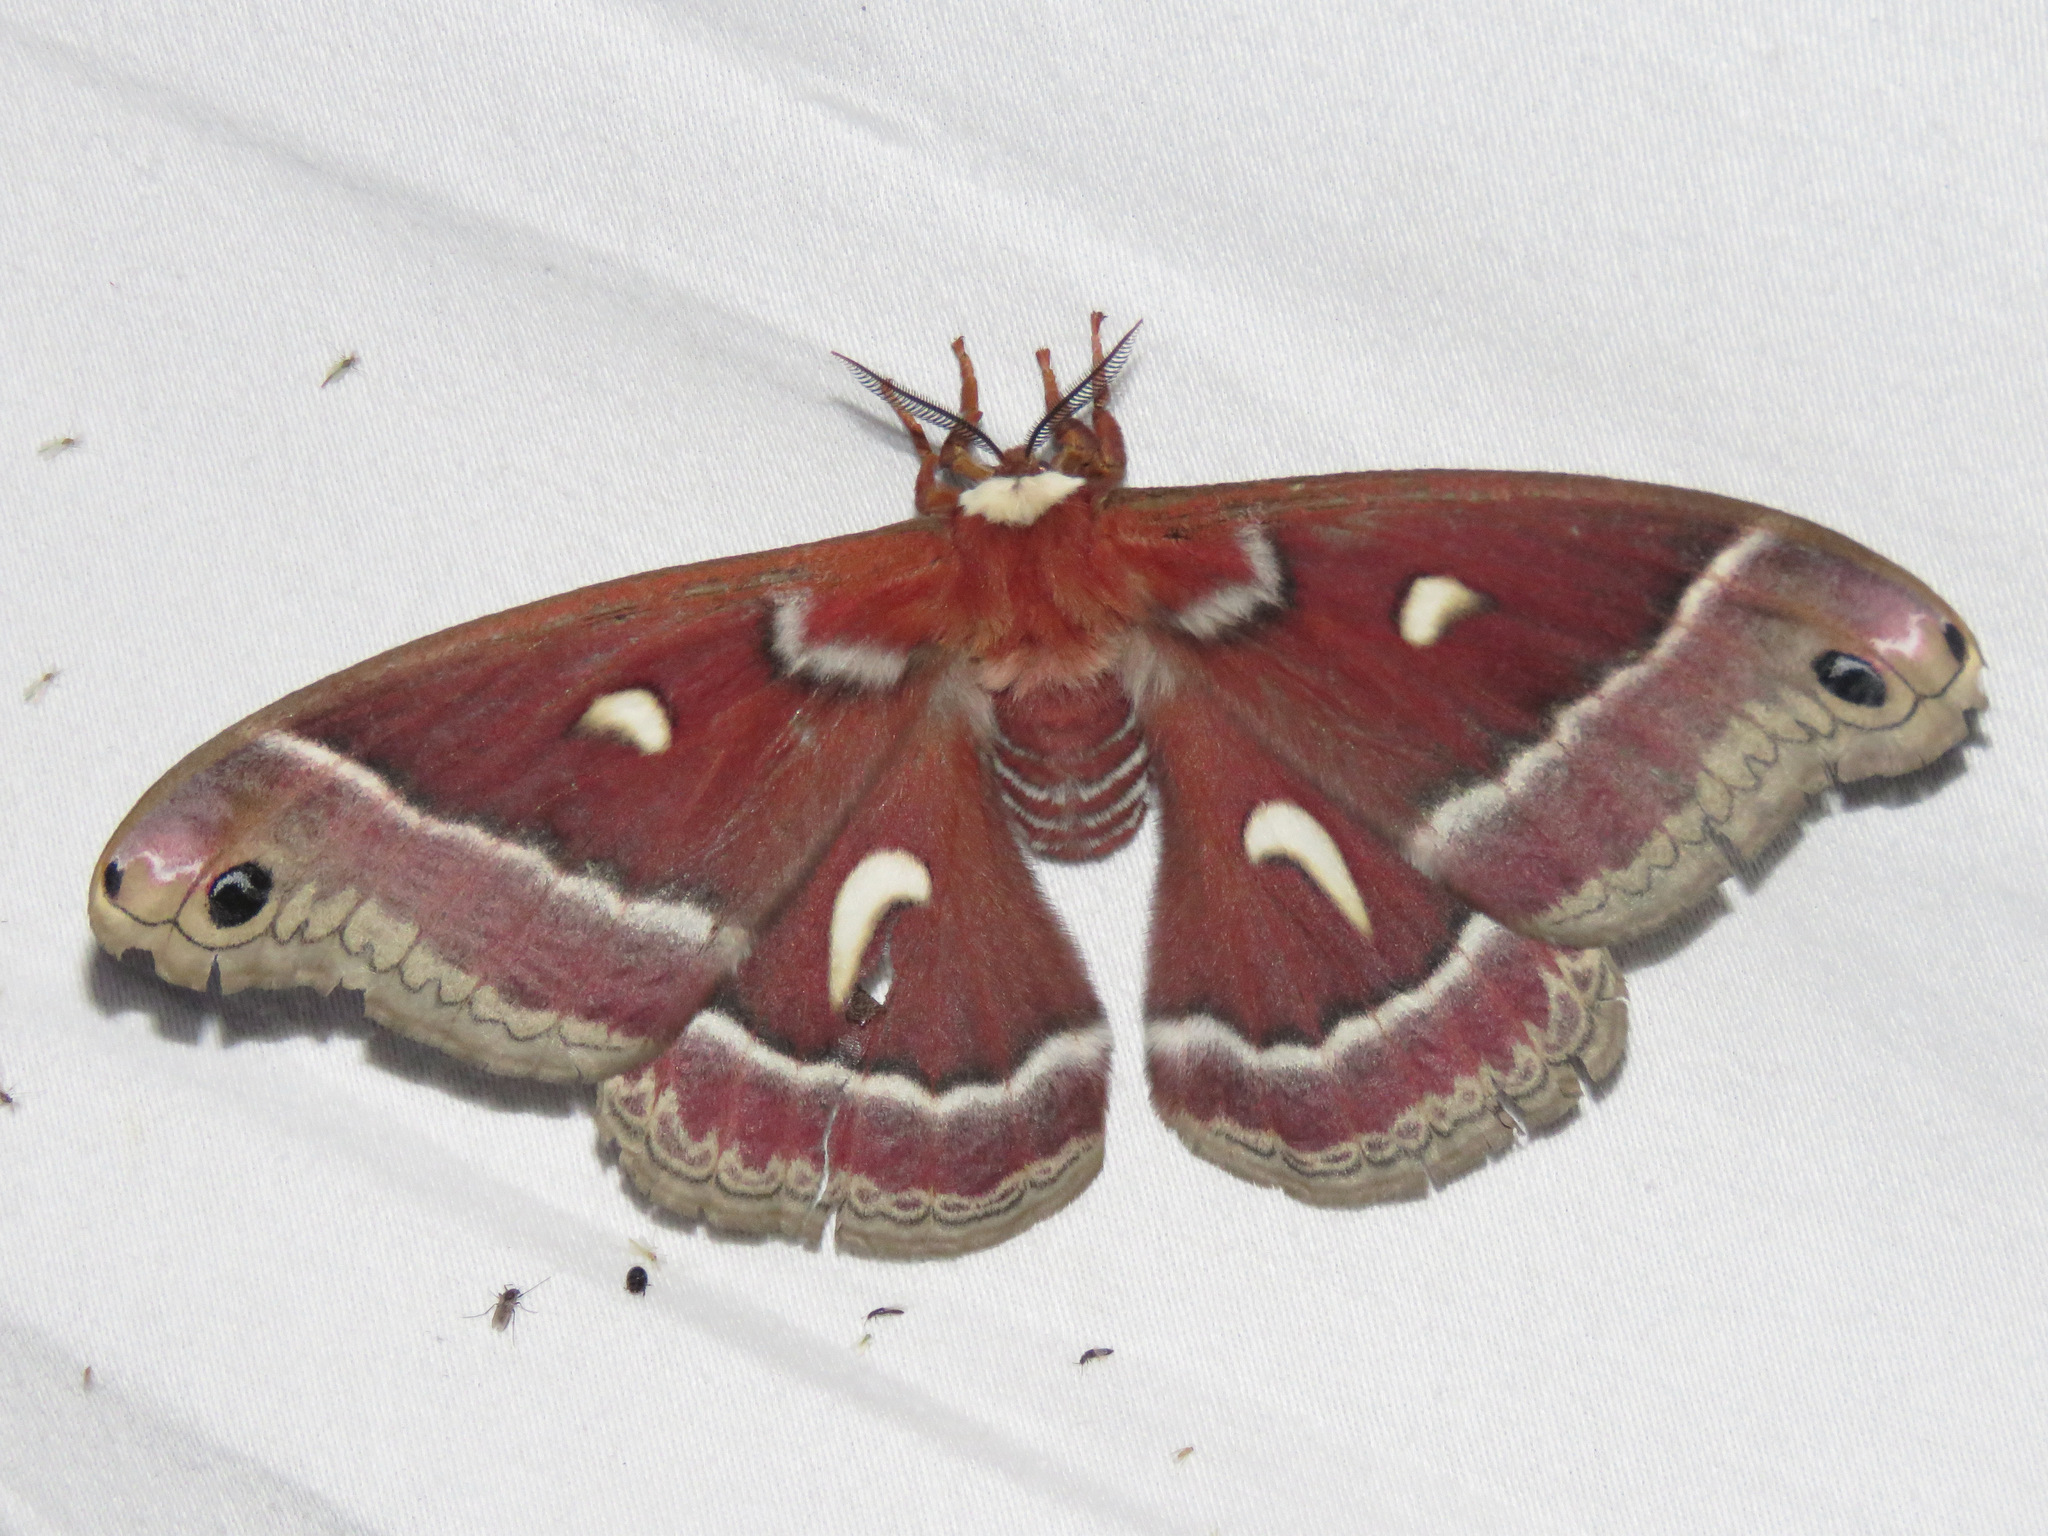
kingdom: Animalia
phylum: Arthropoda
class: Insecta
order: Lepidoptera
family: Saturniidae
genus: Hyalophora
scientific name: Hyalophora euryalus
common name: Ceanothus silkmoth
